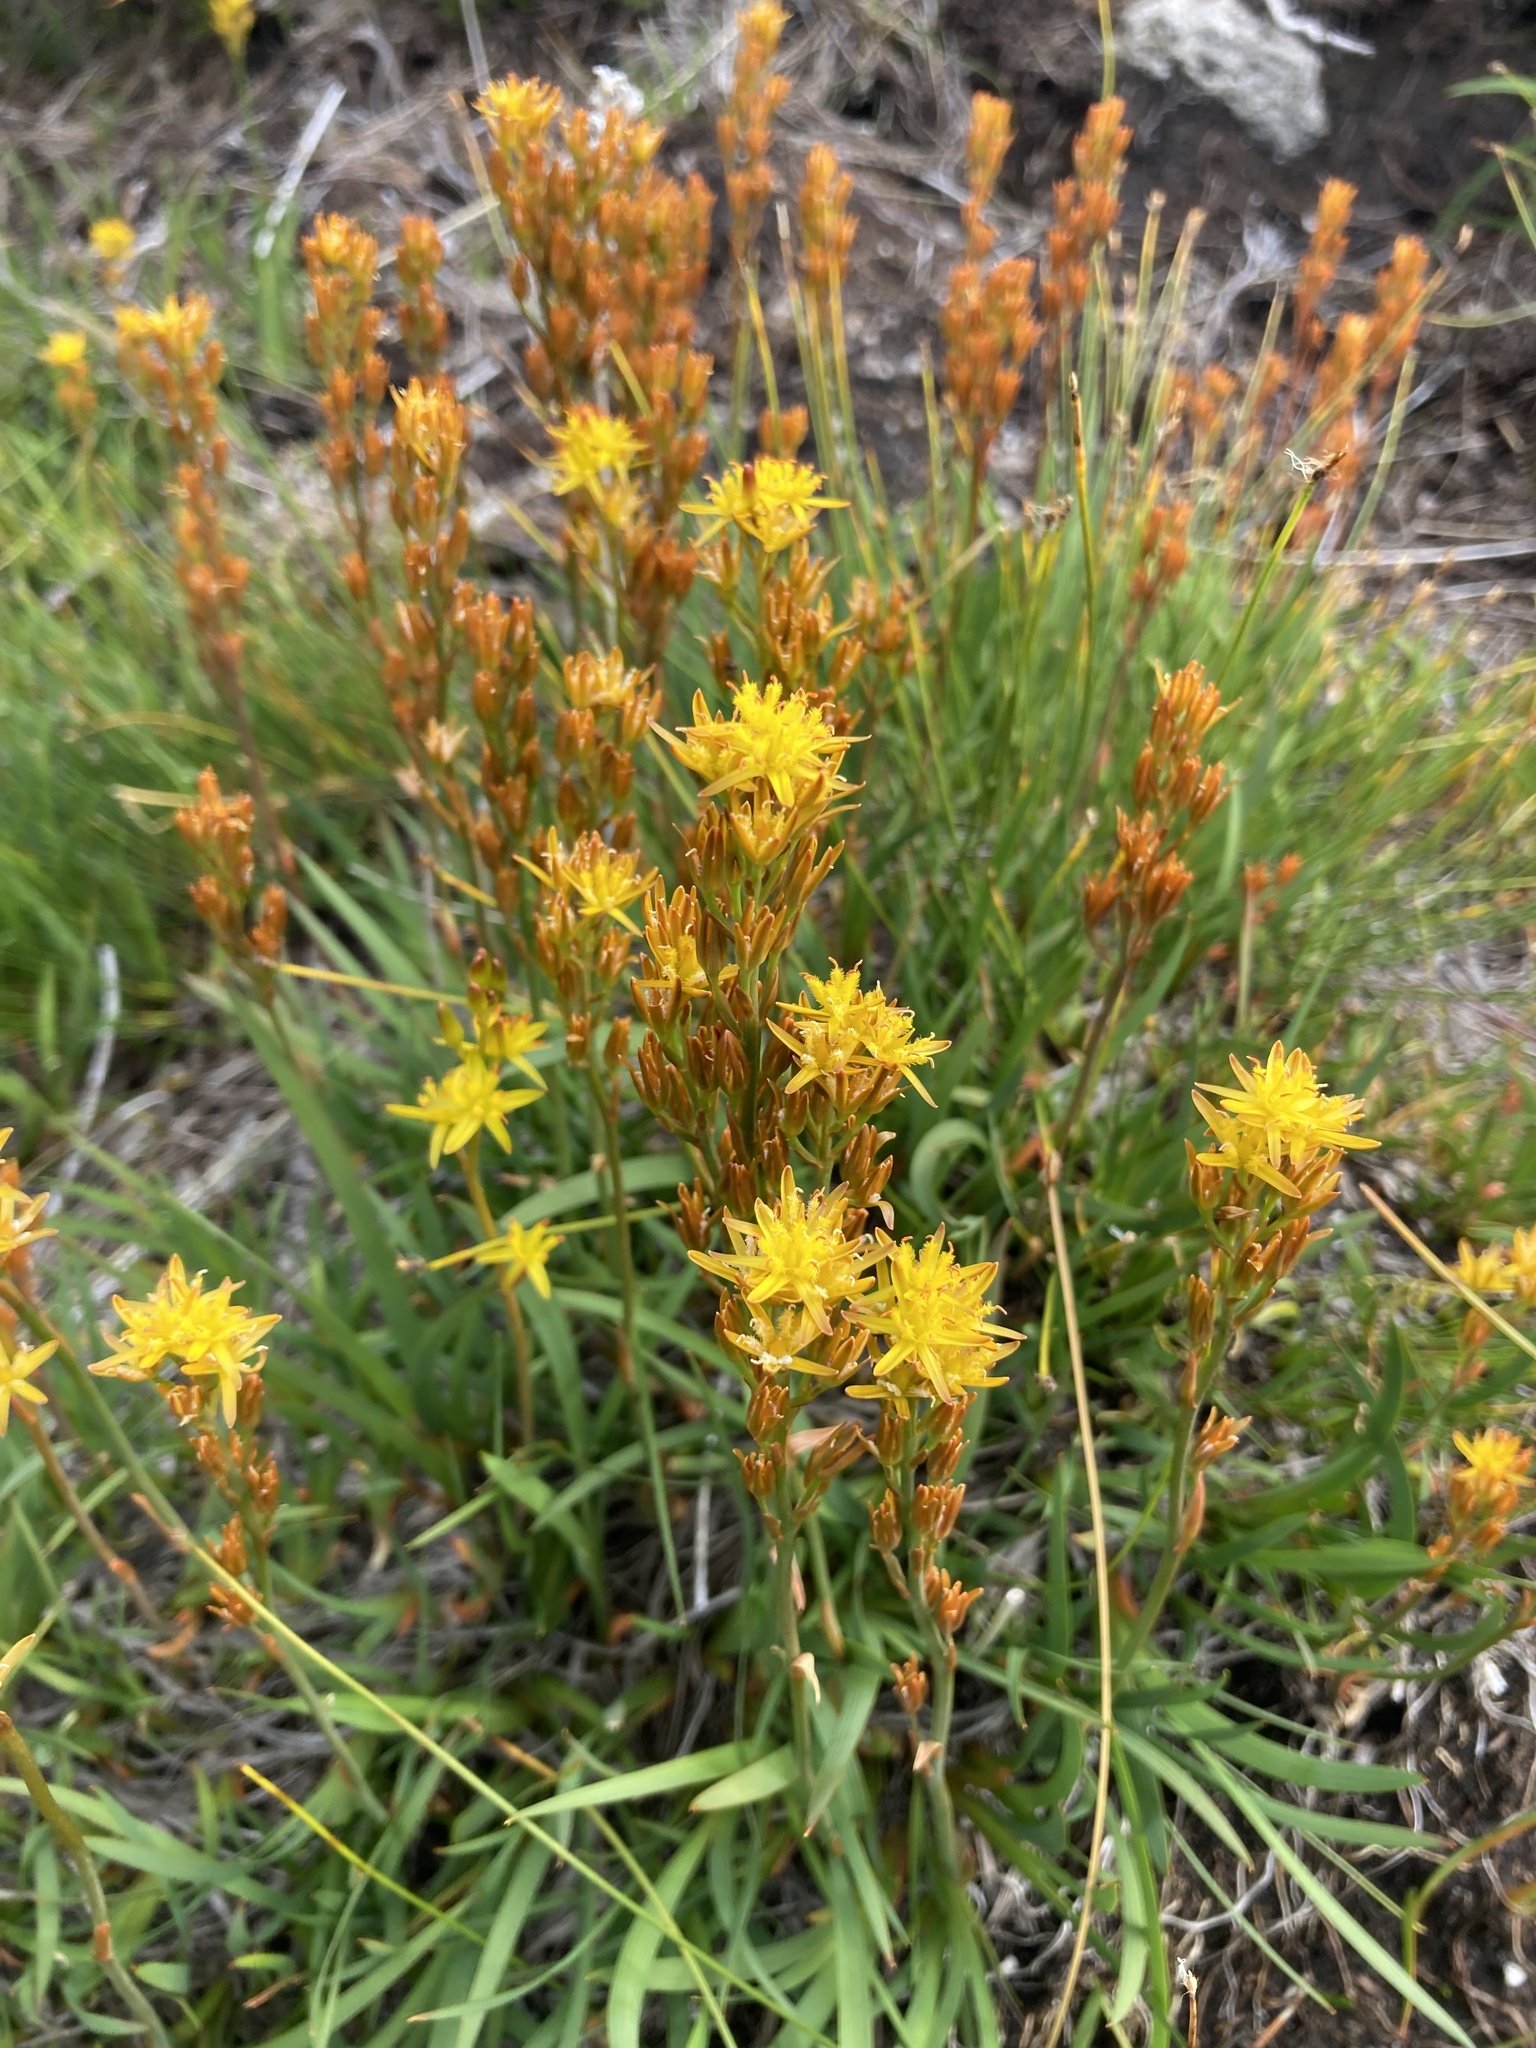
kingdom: Plantae
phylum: Tracheophyta
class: Liliopsida
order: Dioscoreales
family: Nartheciaceae
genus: Narthecium
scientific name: Narthecium ossifragum
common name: Bog asphodel
